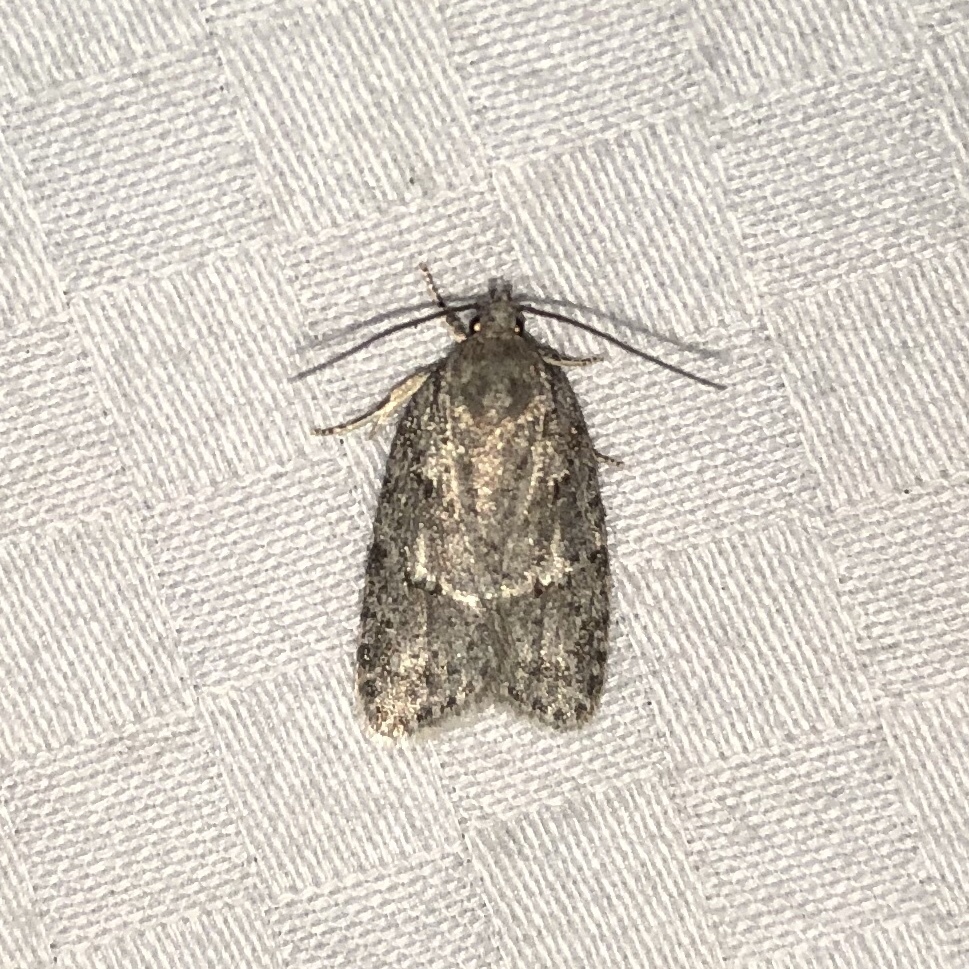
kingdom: Animalia
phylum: Arthropoda
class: Insecta
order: Lepidoptera
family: Depressariidae
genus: Bibarrambla
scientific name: Bibarrambla allenella
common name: Bog bibarrambla moth
